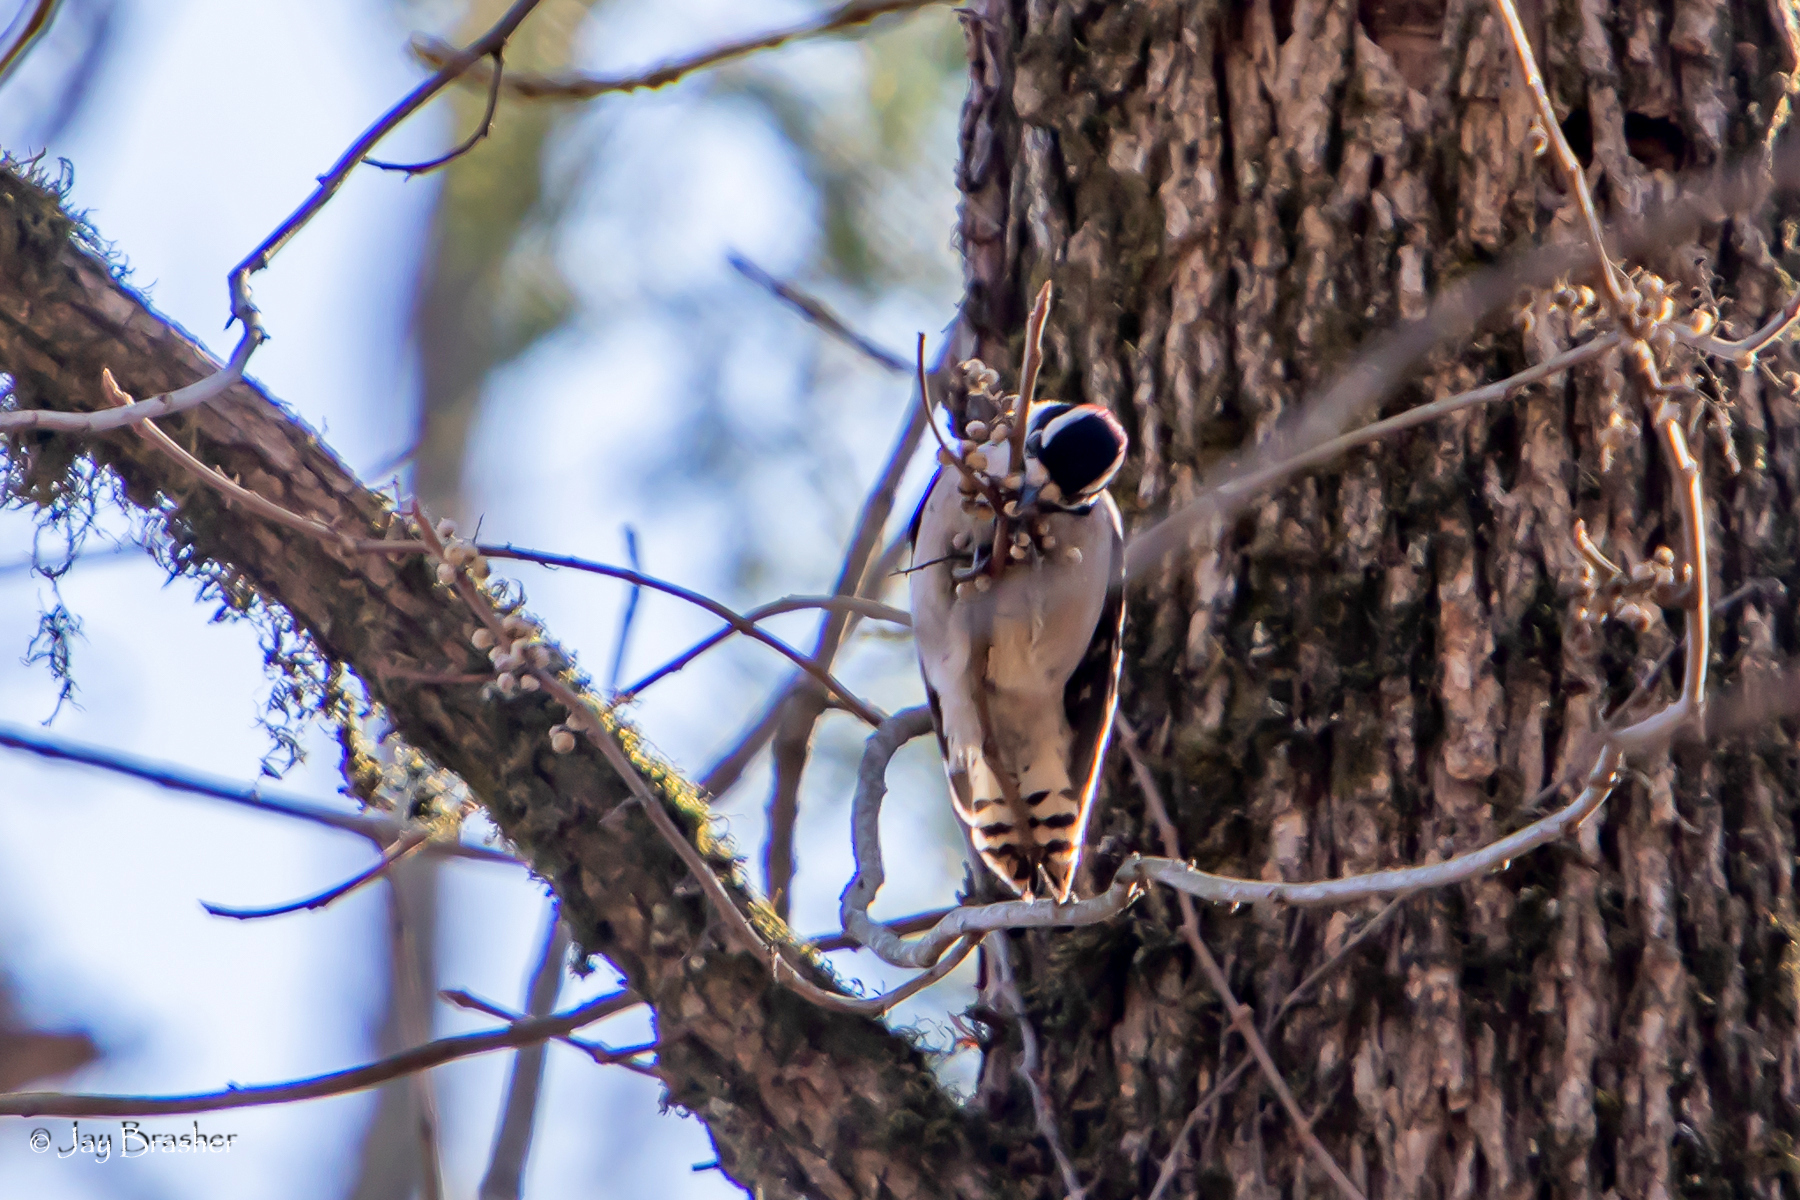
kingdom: Animalia
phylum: Chordata
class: Aves
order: Piciformes
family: Picidae
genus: Dryobates
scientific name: Dryobates pubescens
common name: Downy woodpecker
